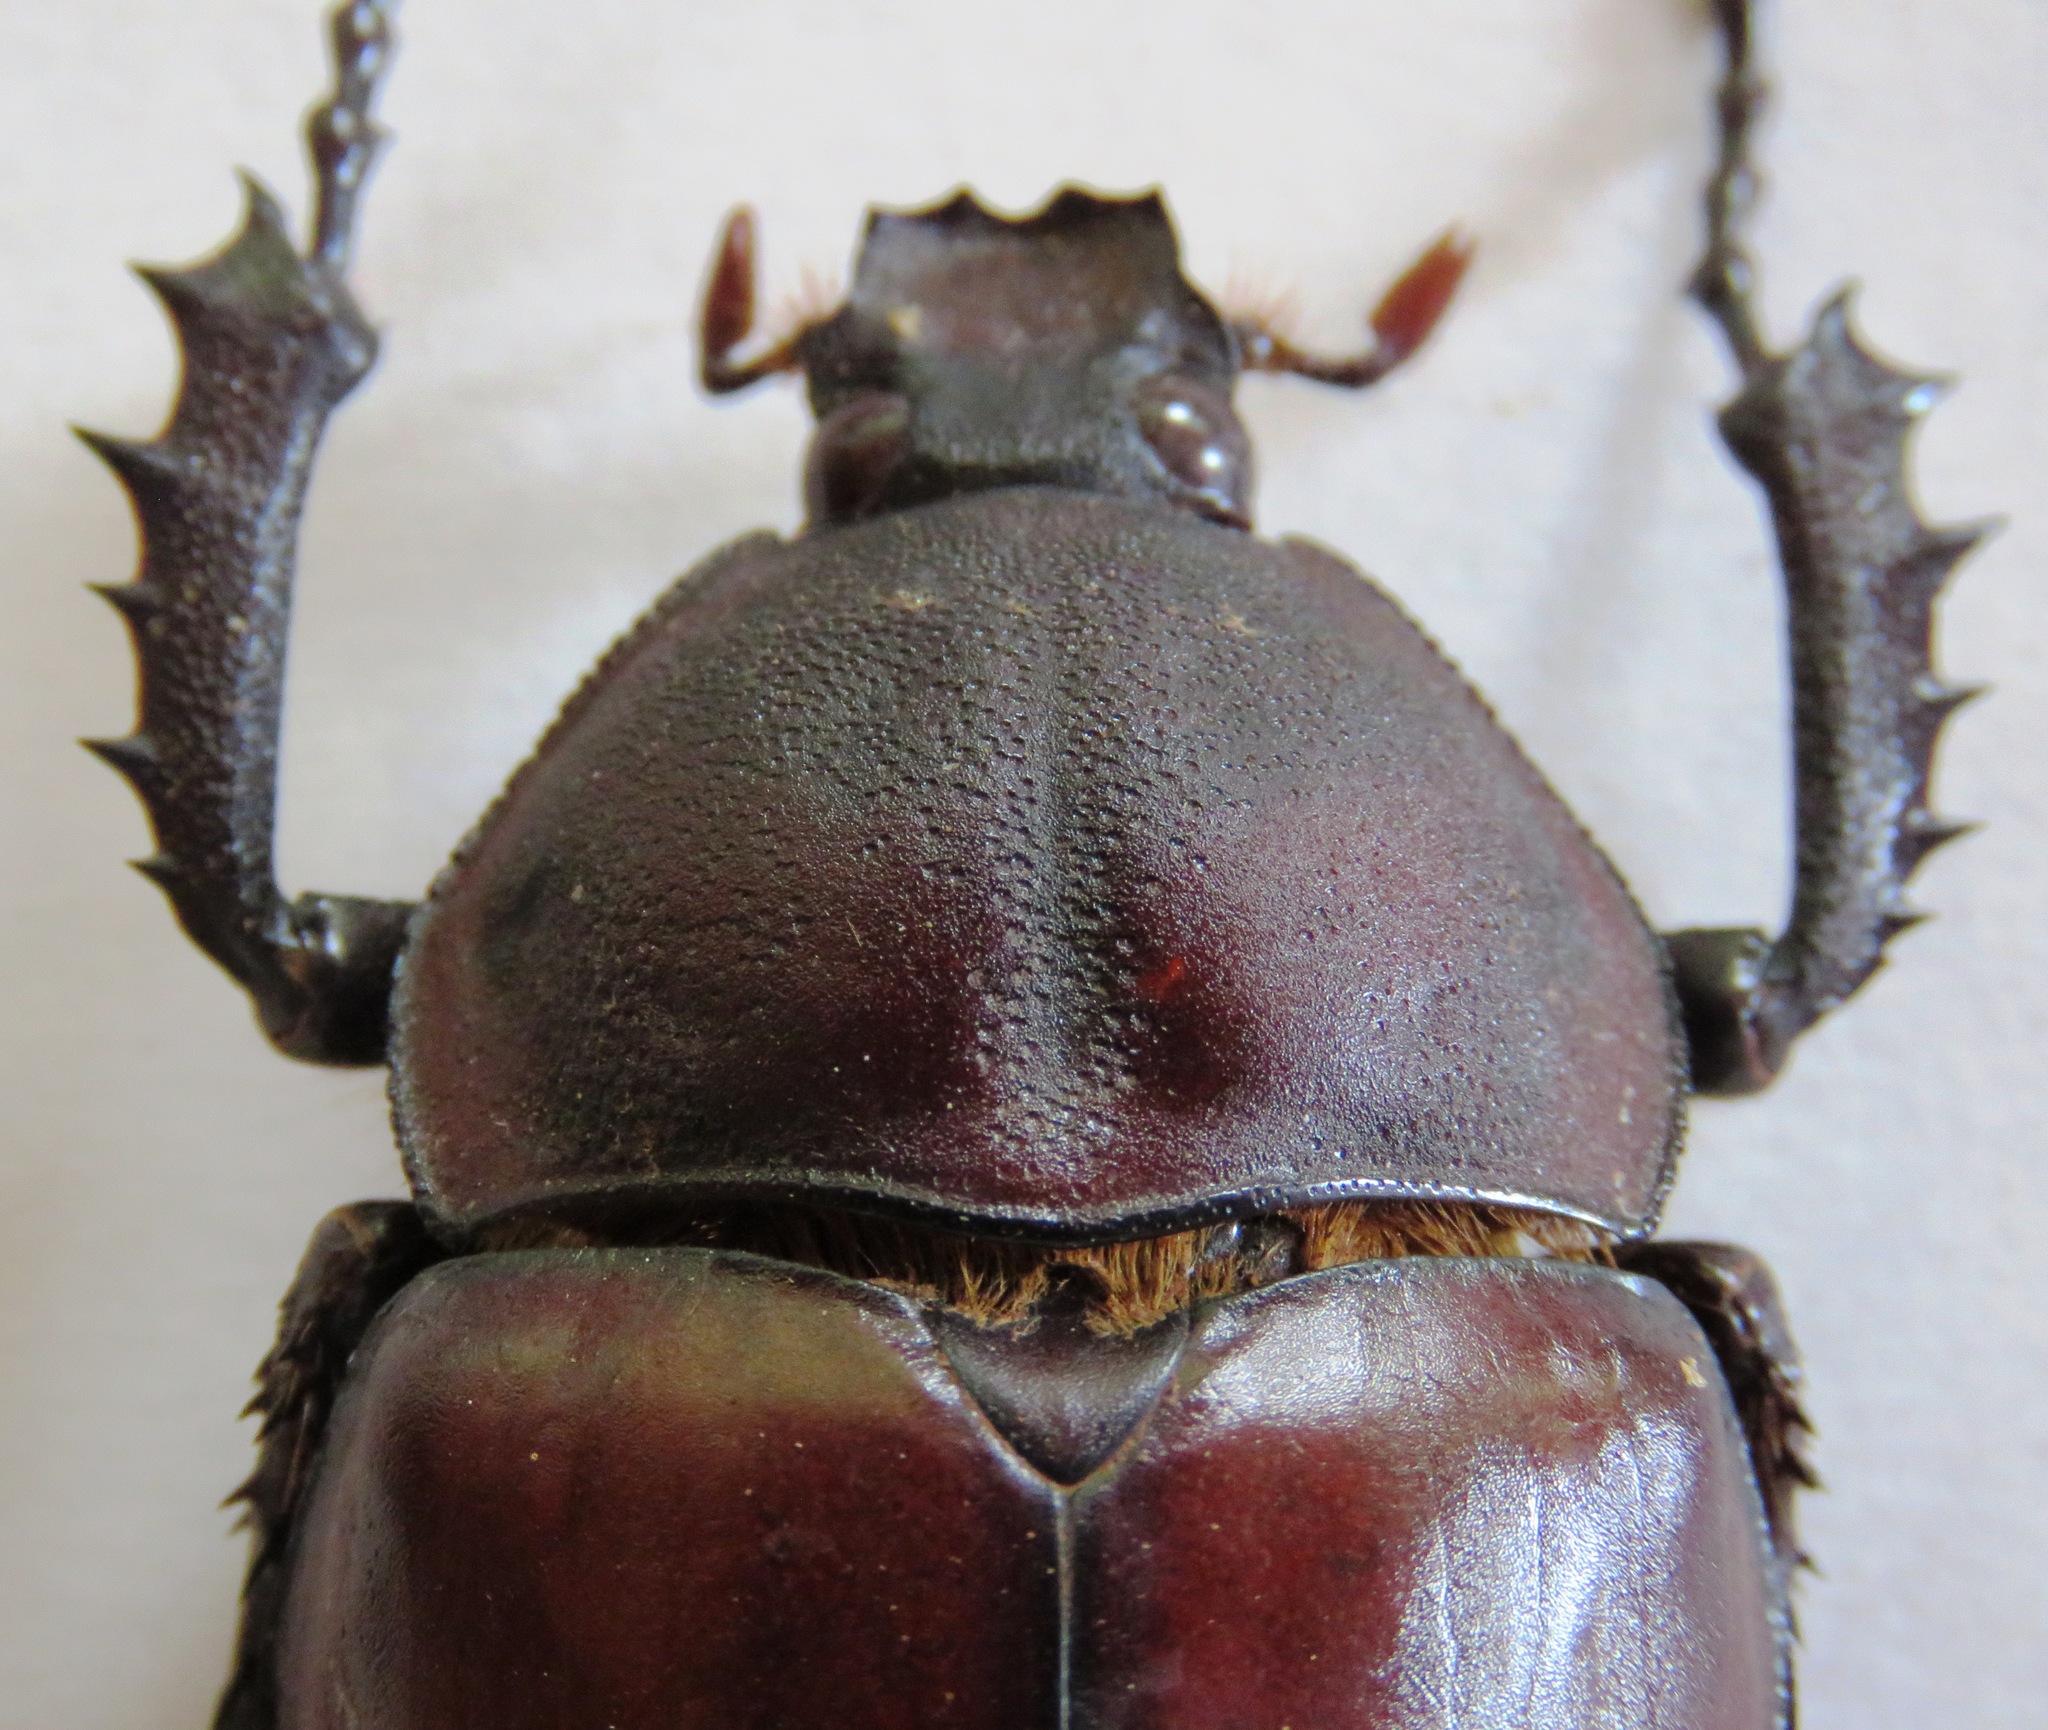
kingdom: Animalia
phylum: Arthropoda
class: Insecta
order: Coleoptera
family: Scarabaeidae
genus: Euchirus
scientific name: Euchirus longimanus
